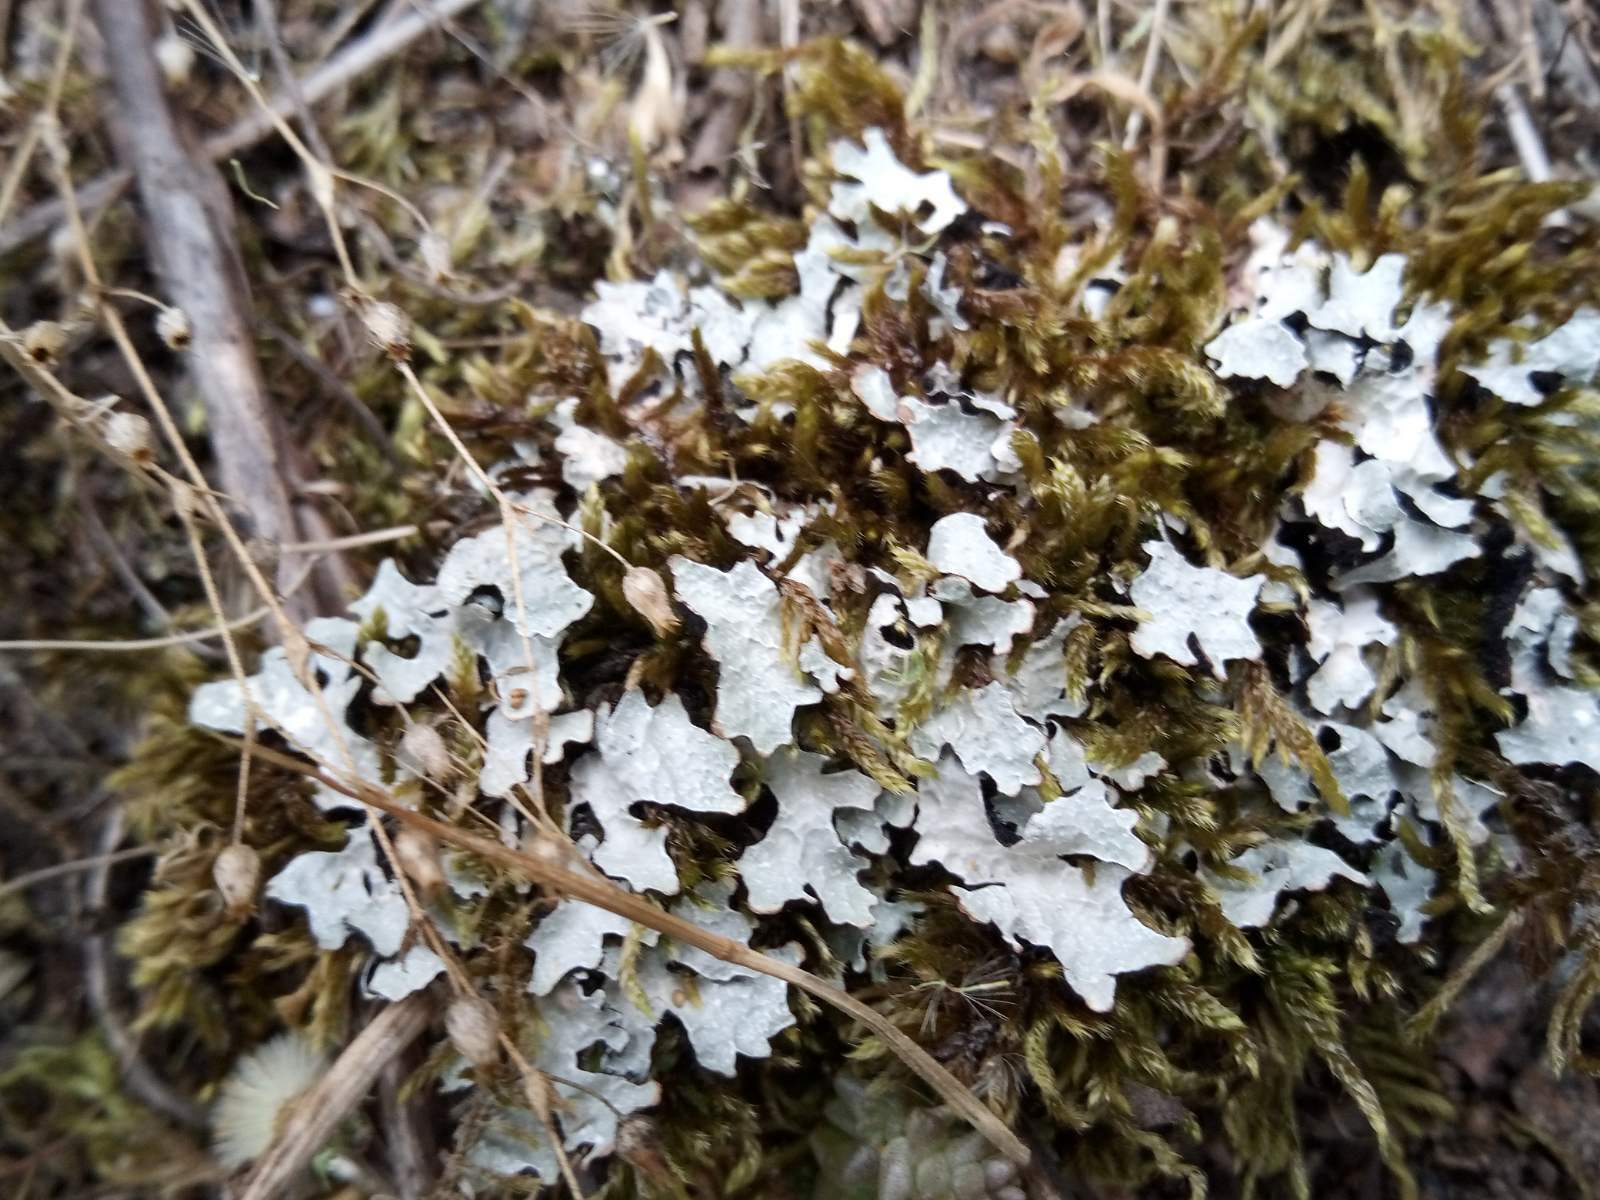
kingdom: Fungi
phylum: Ascomycota
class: Lecanoromycetes
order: Lecanorales
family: Parmeliaceae
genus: Parmelia
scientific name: Parmelia sulcata
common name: Netted shield lichen
